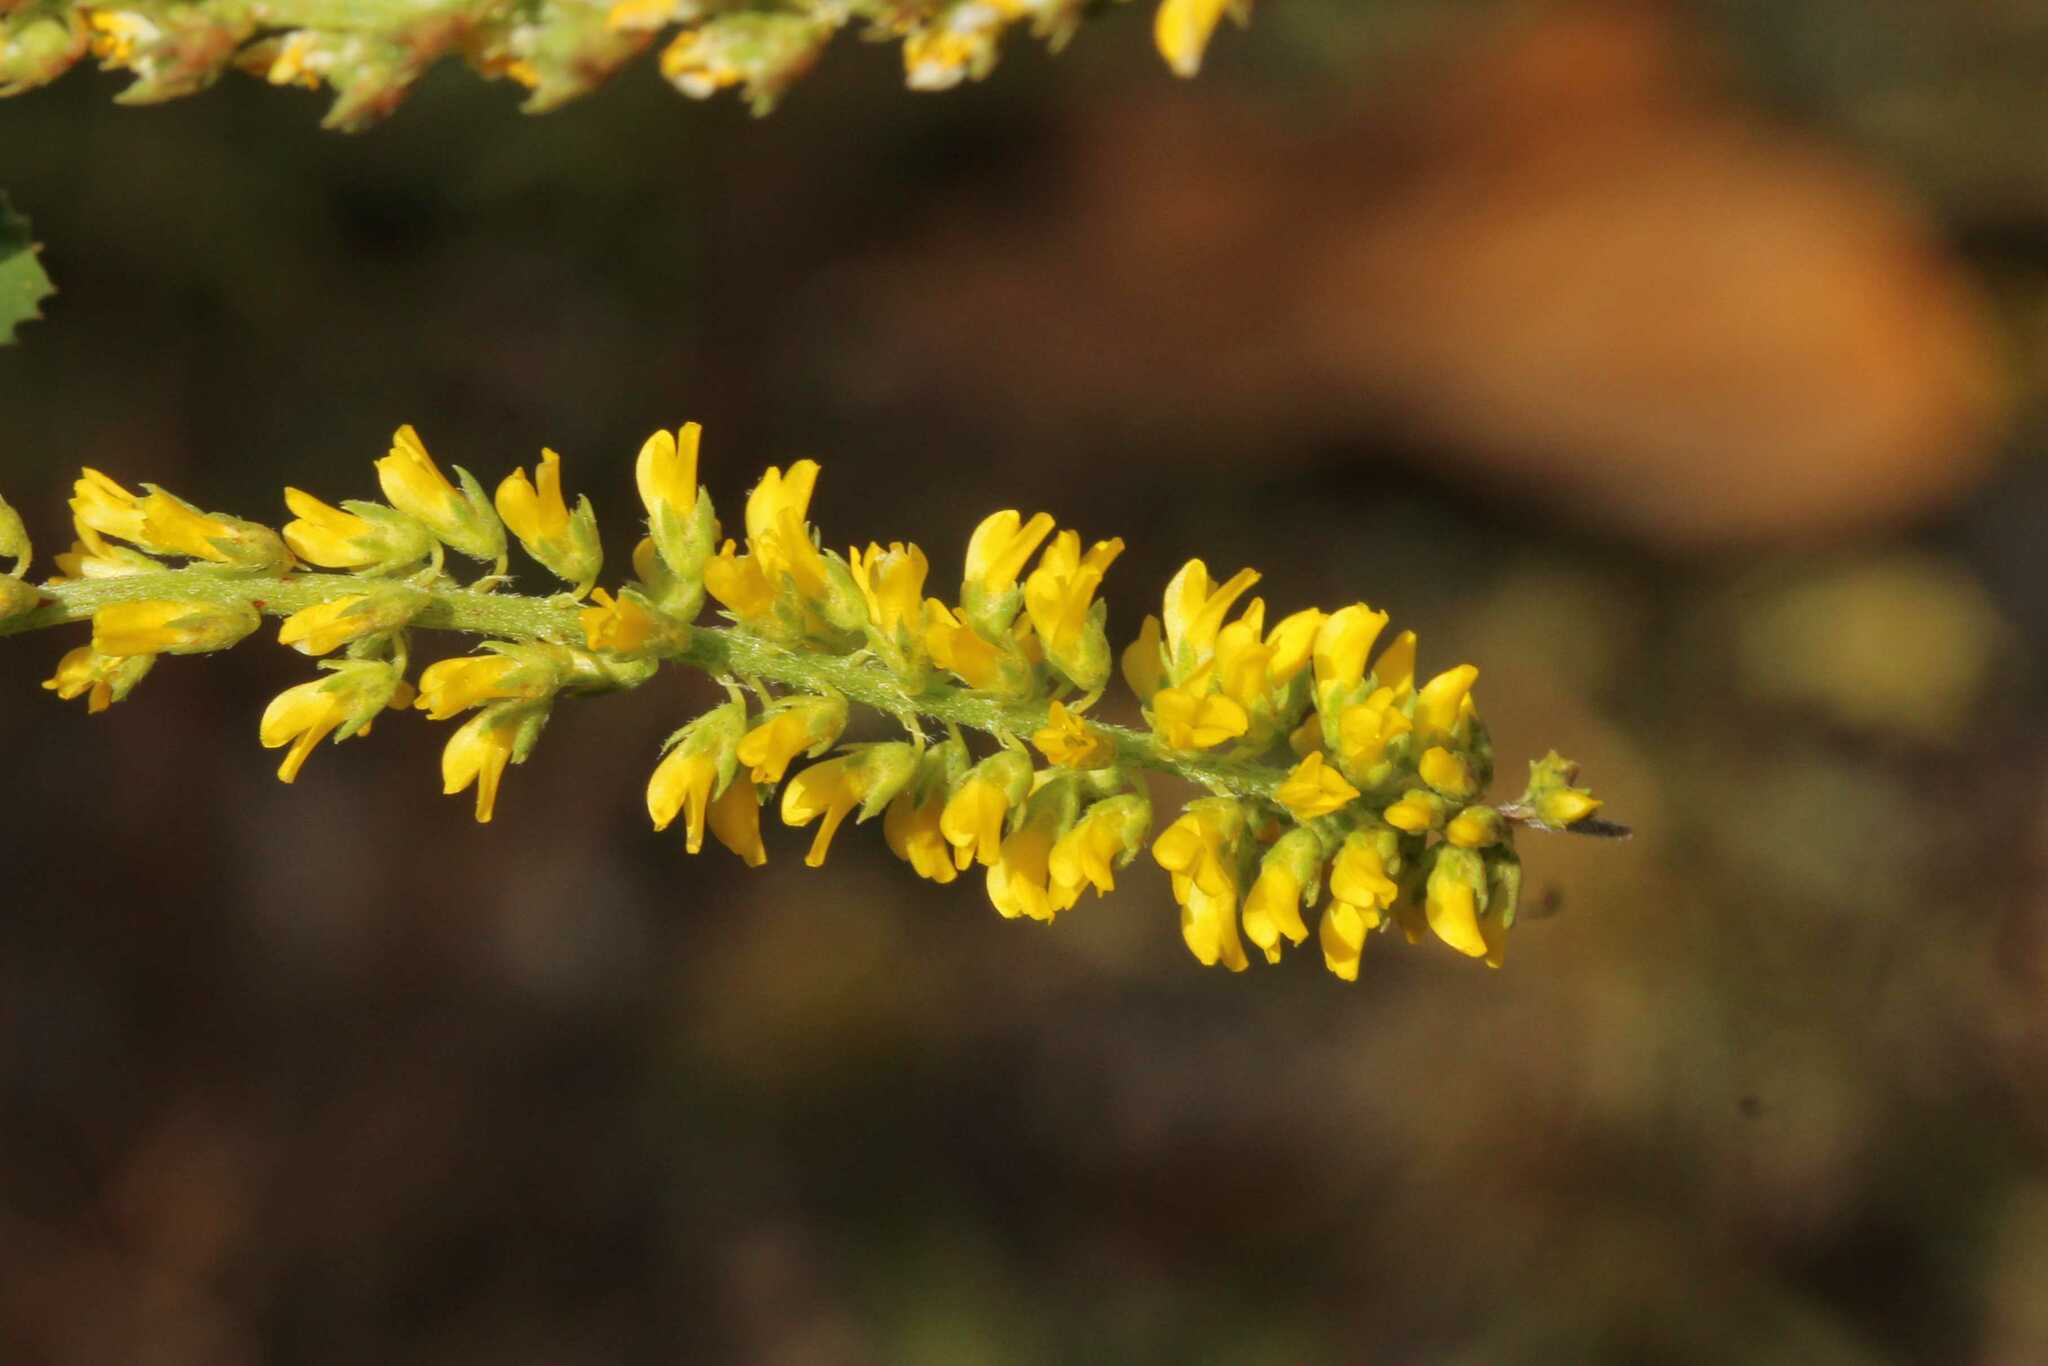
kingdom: Plantae
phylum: Tracheophyta
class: Magnoliopsida
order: Fabales
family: Fabaceae
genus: Melilotus
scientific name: Melilotus indicus
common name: Small melilot
